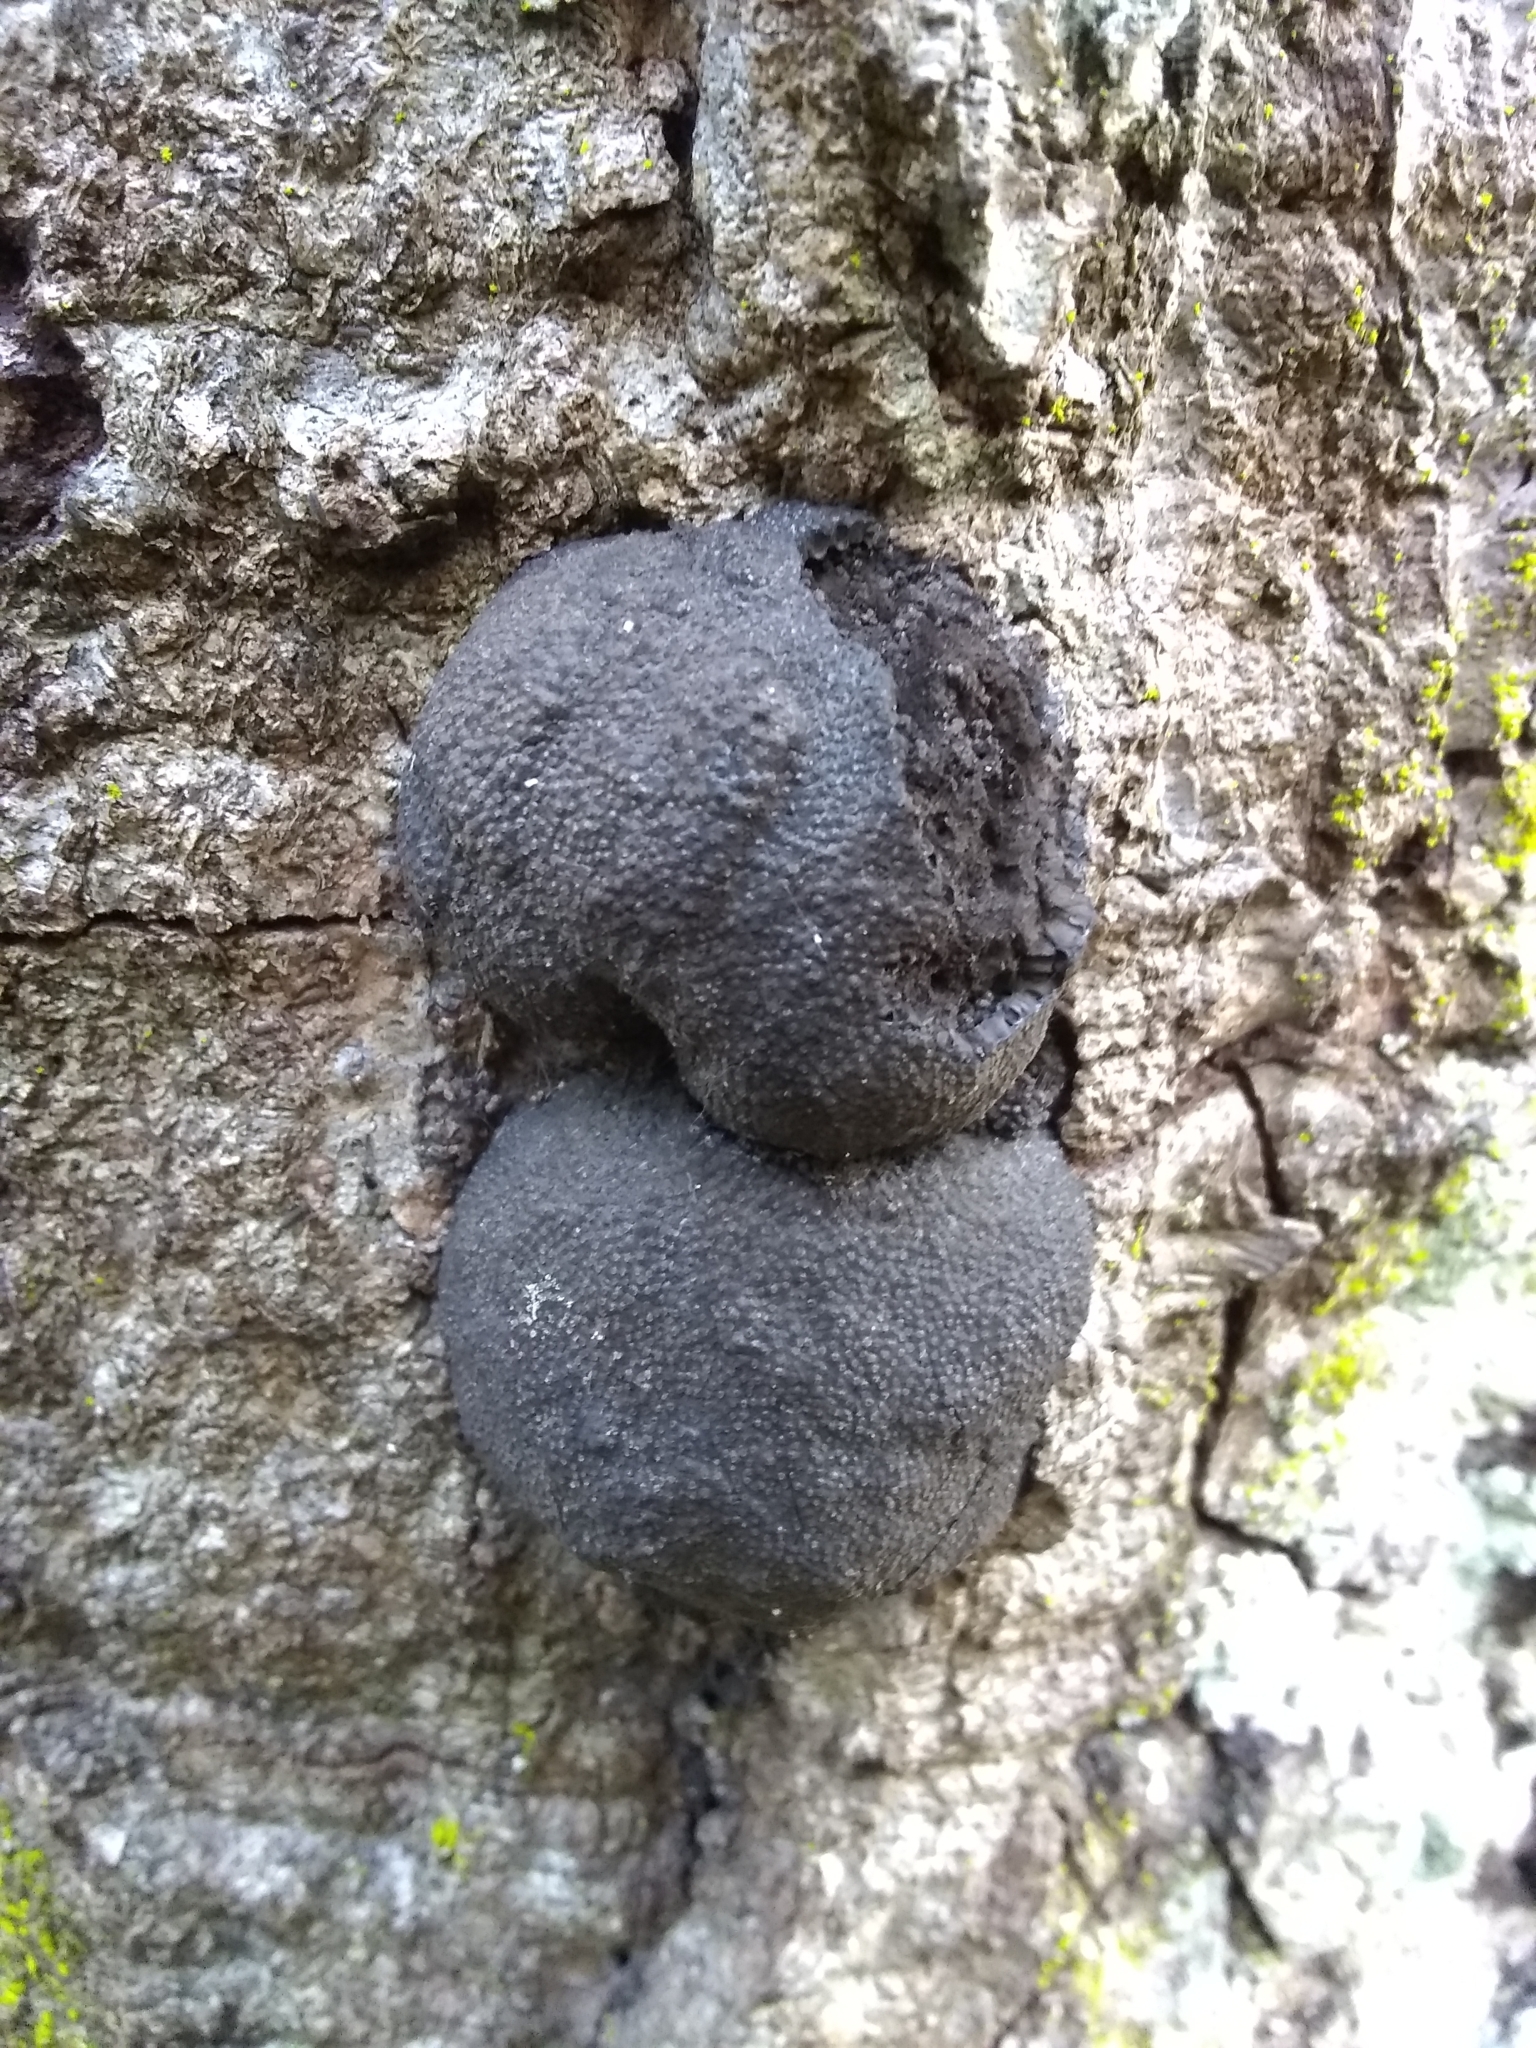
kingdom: Fungi
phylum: Ascomycota
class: Sordariomycetes
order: Xylariales
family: Hypoxylaceae
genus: Annulohypoxylon
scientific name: Annulohypoxylon thouarsianum
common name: Cramp balls
